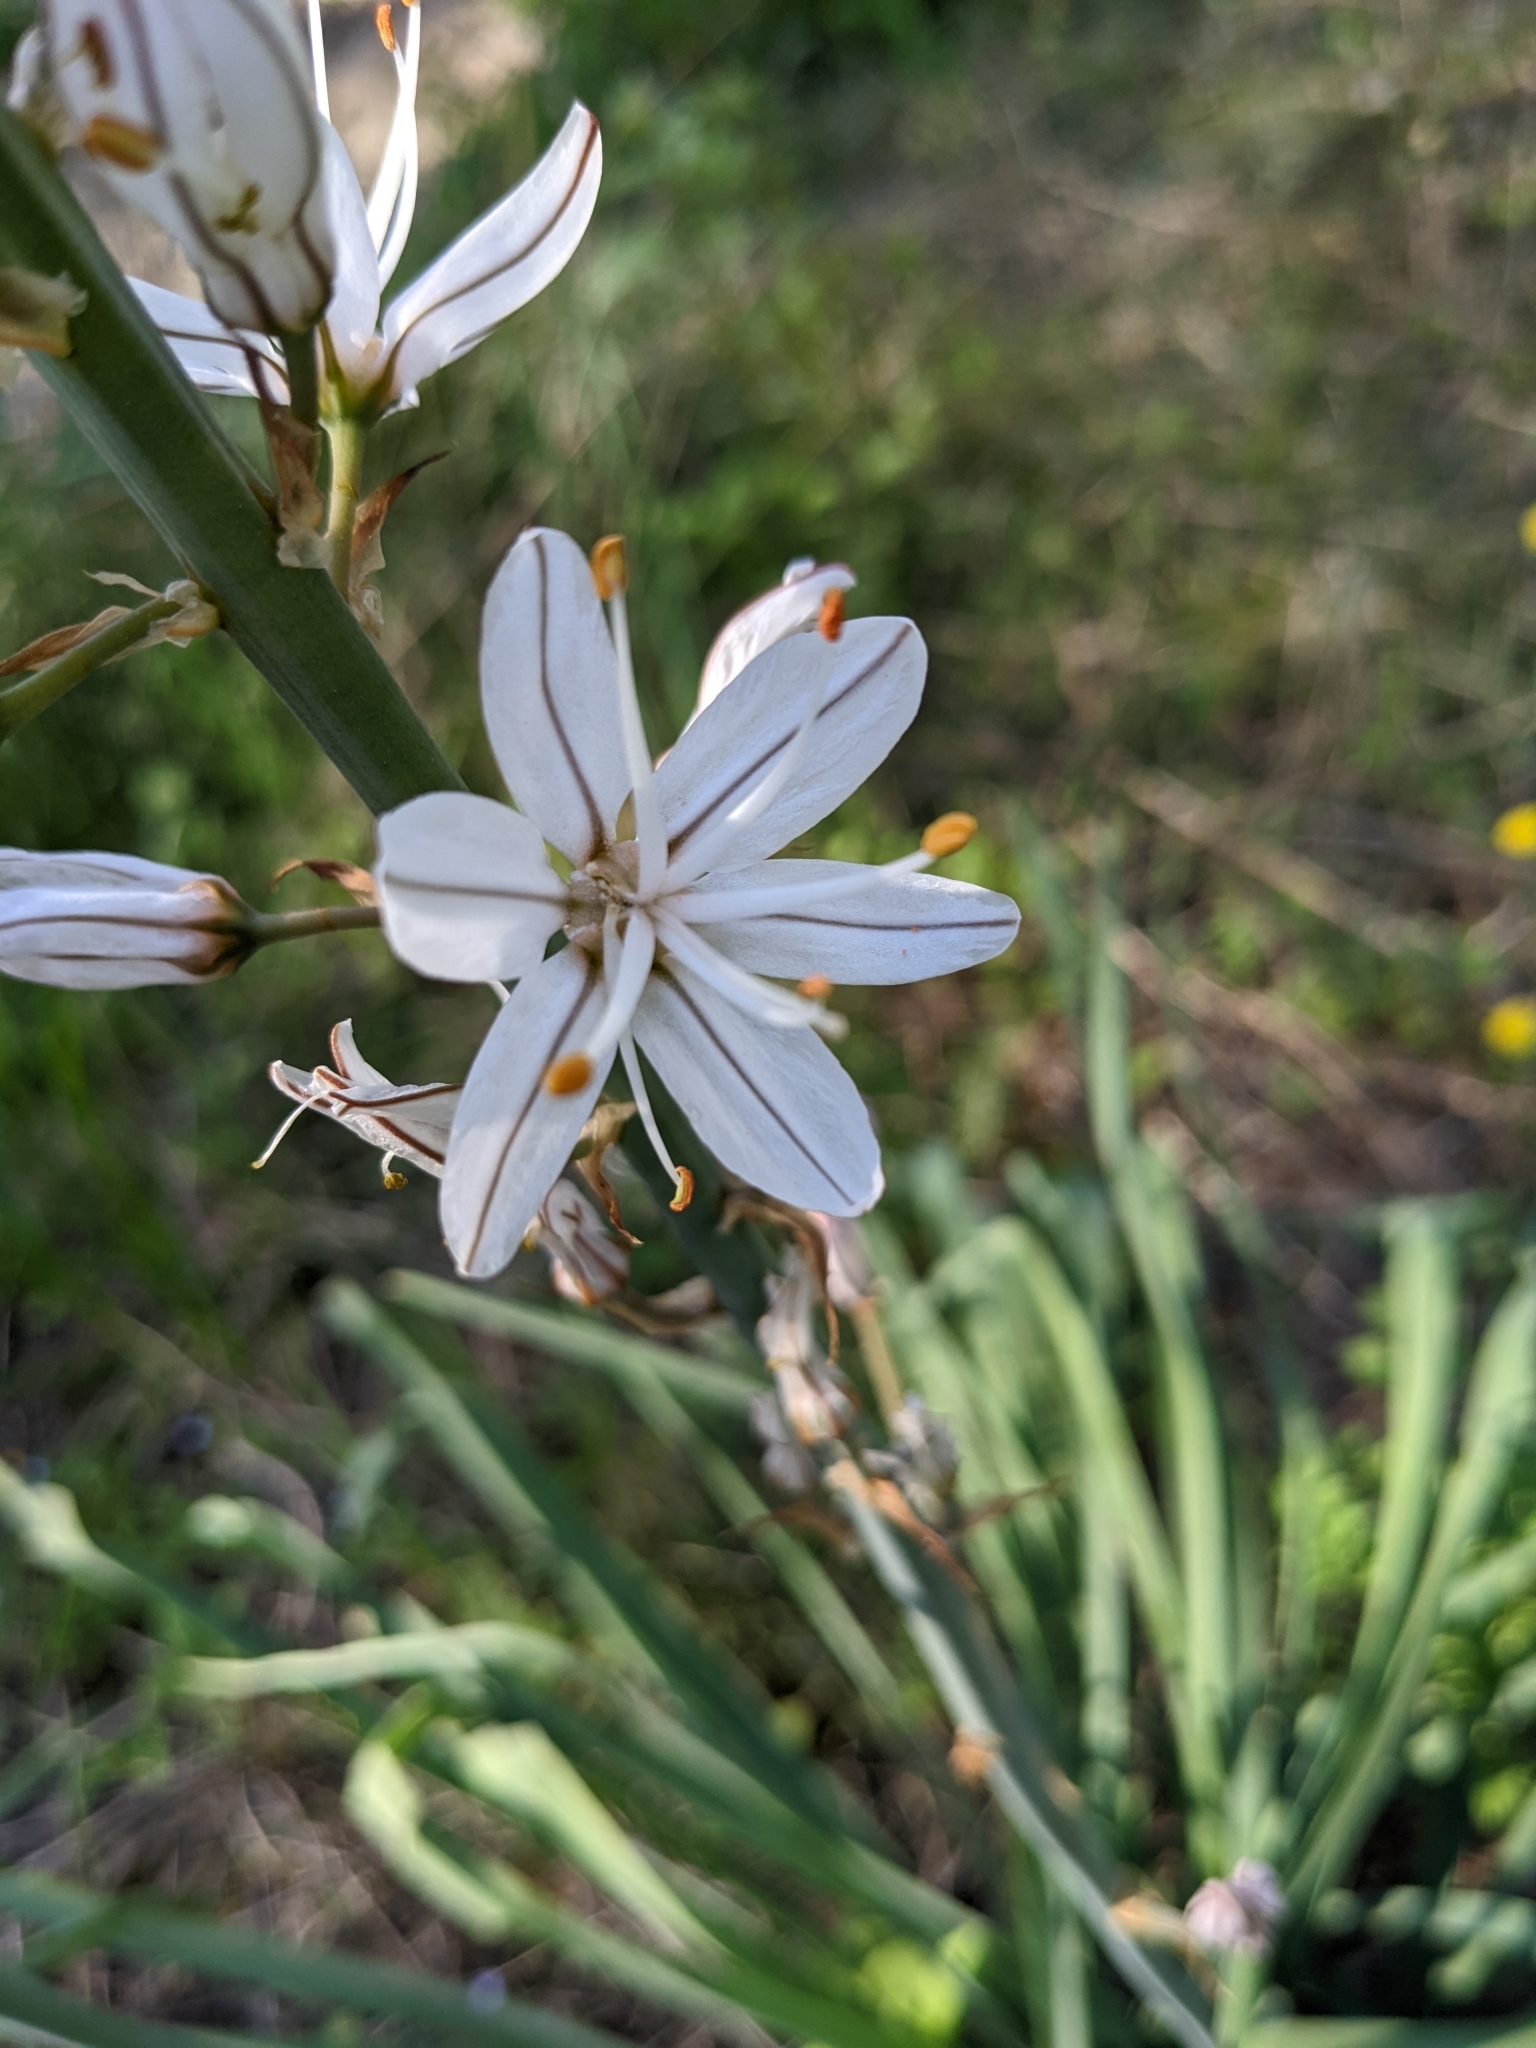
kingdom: Plantae
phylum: Tracheophyta
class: Liliopsida
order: Asparagales
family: Asphodelaceae
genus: Asphodelus
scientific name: Asphodelus cerasifer
